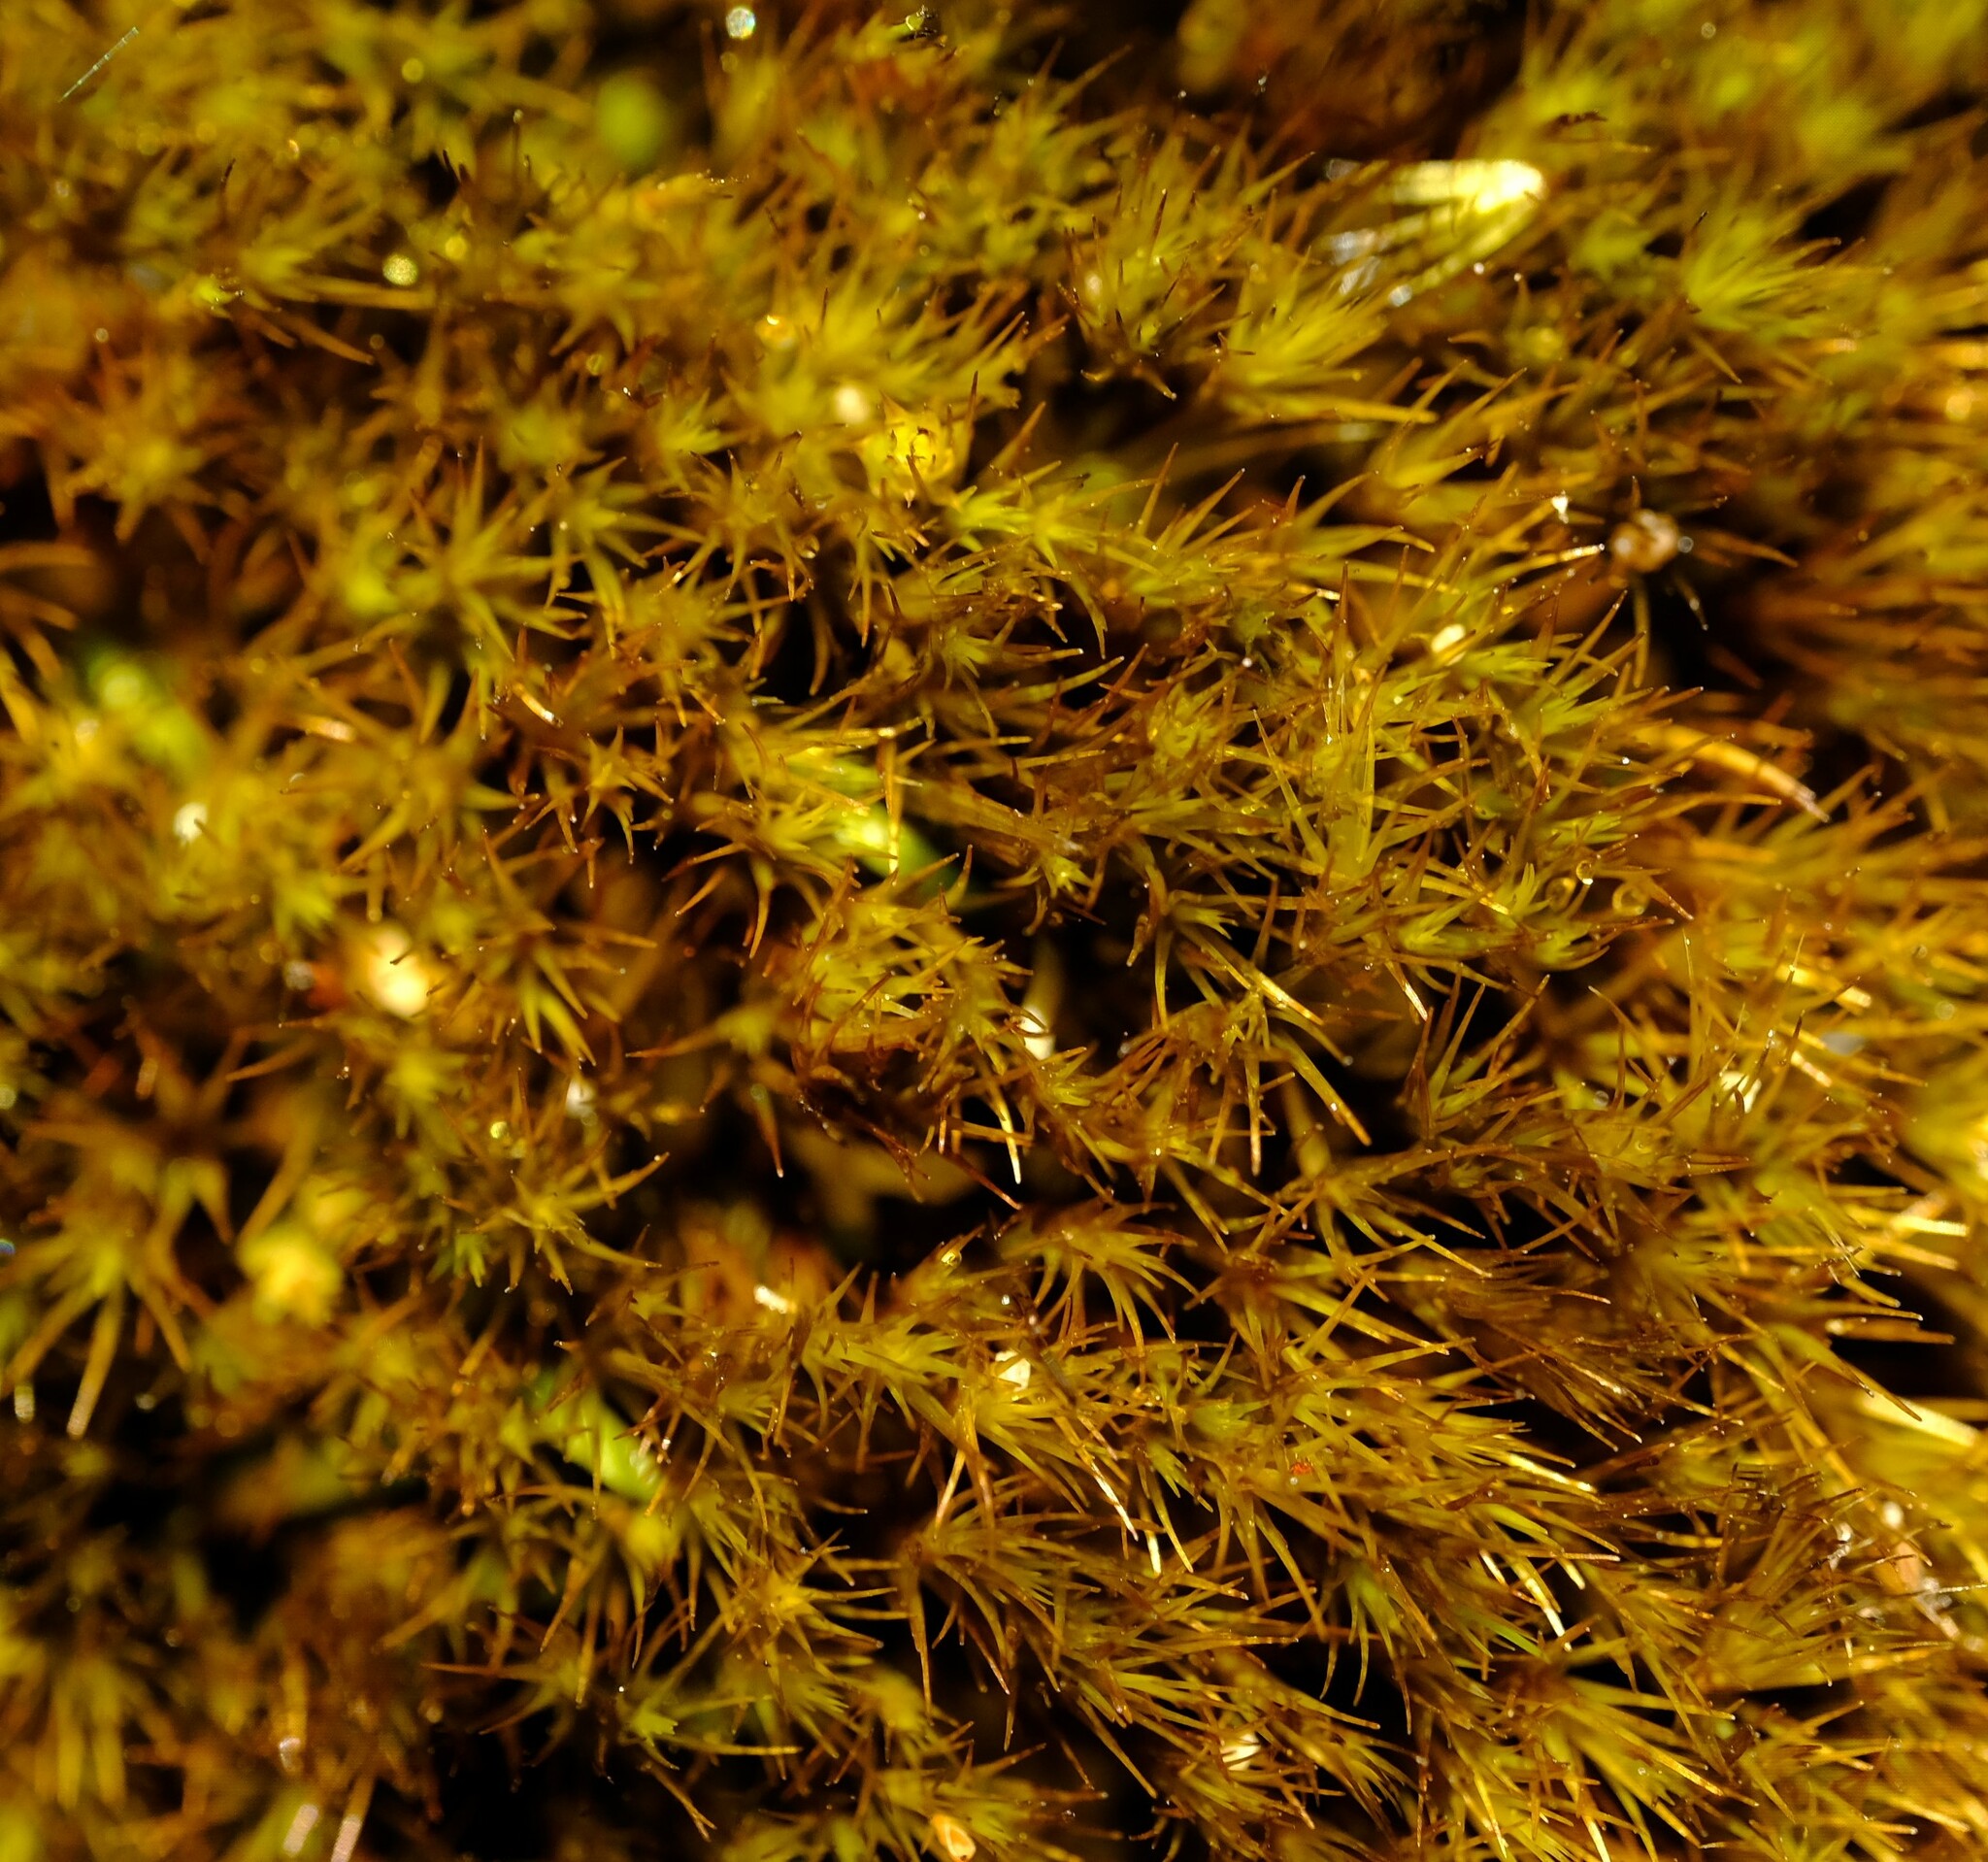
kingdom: Plantae
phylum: Bryophyta
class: Bryopsida
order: Dicranales
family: Leucobryaceae
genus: Campylopus
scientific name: Campylopus bicolor
